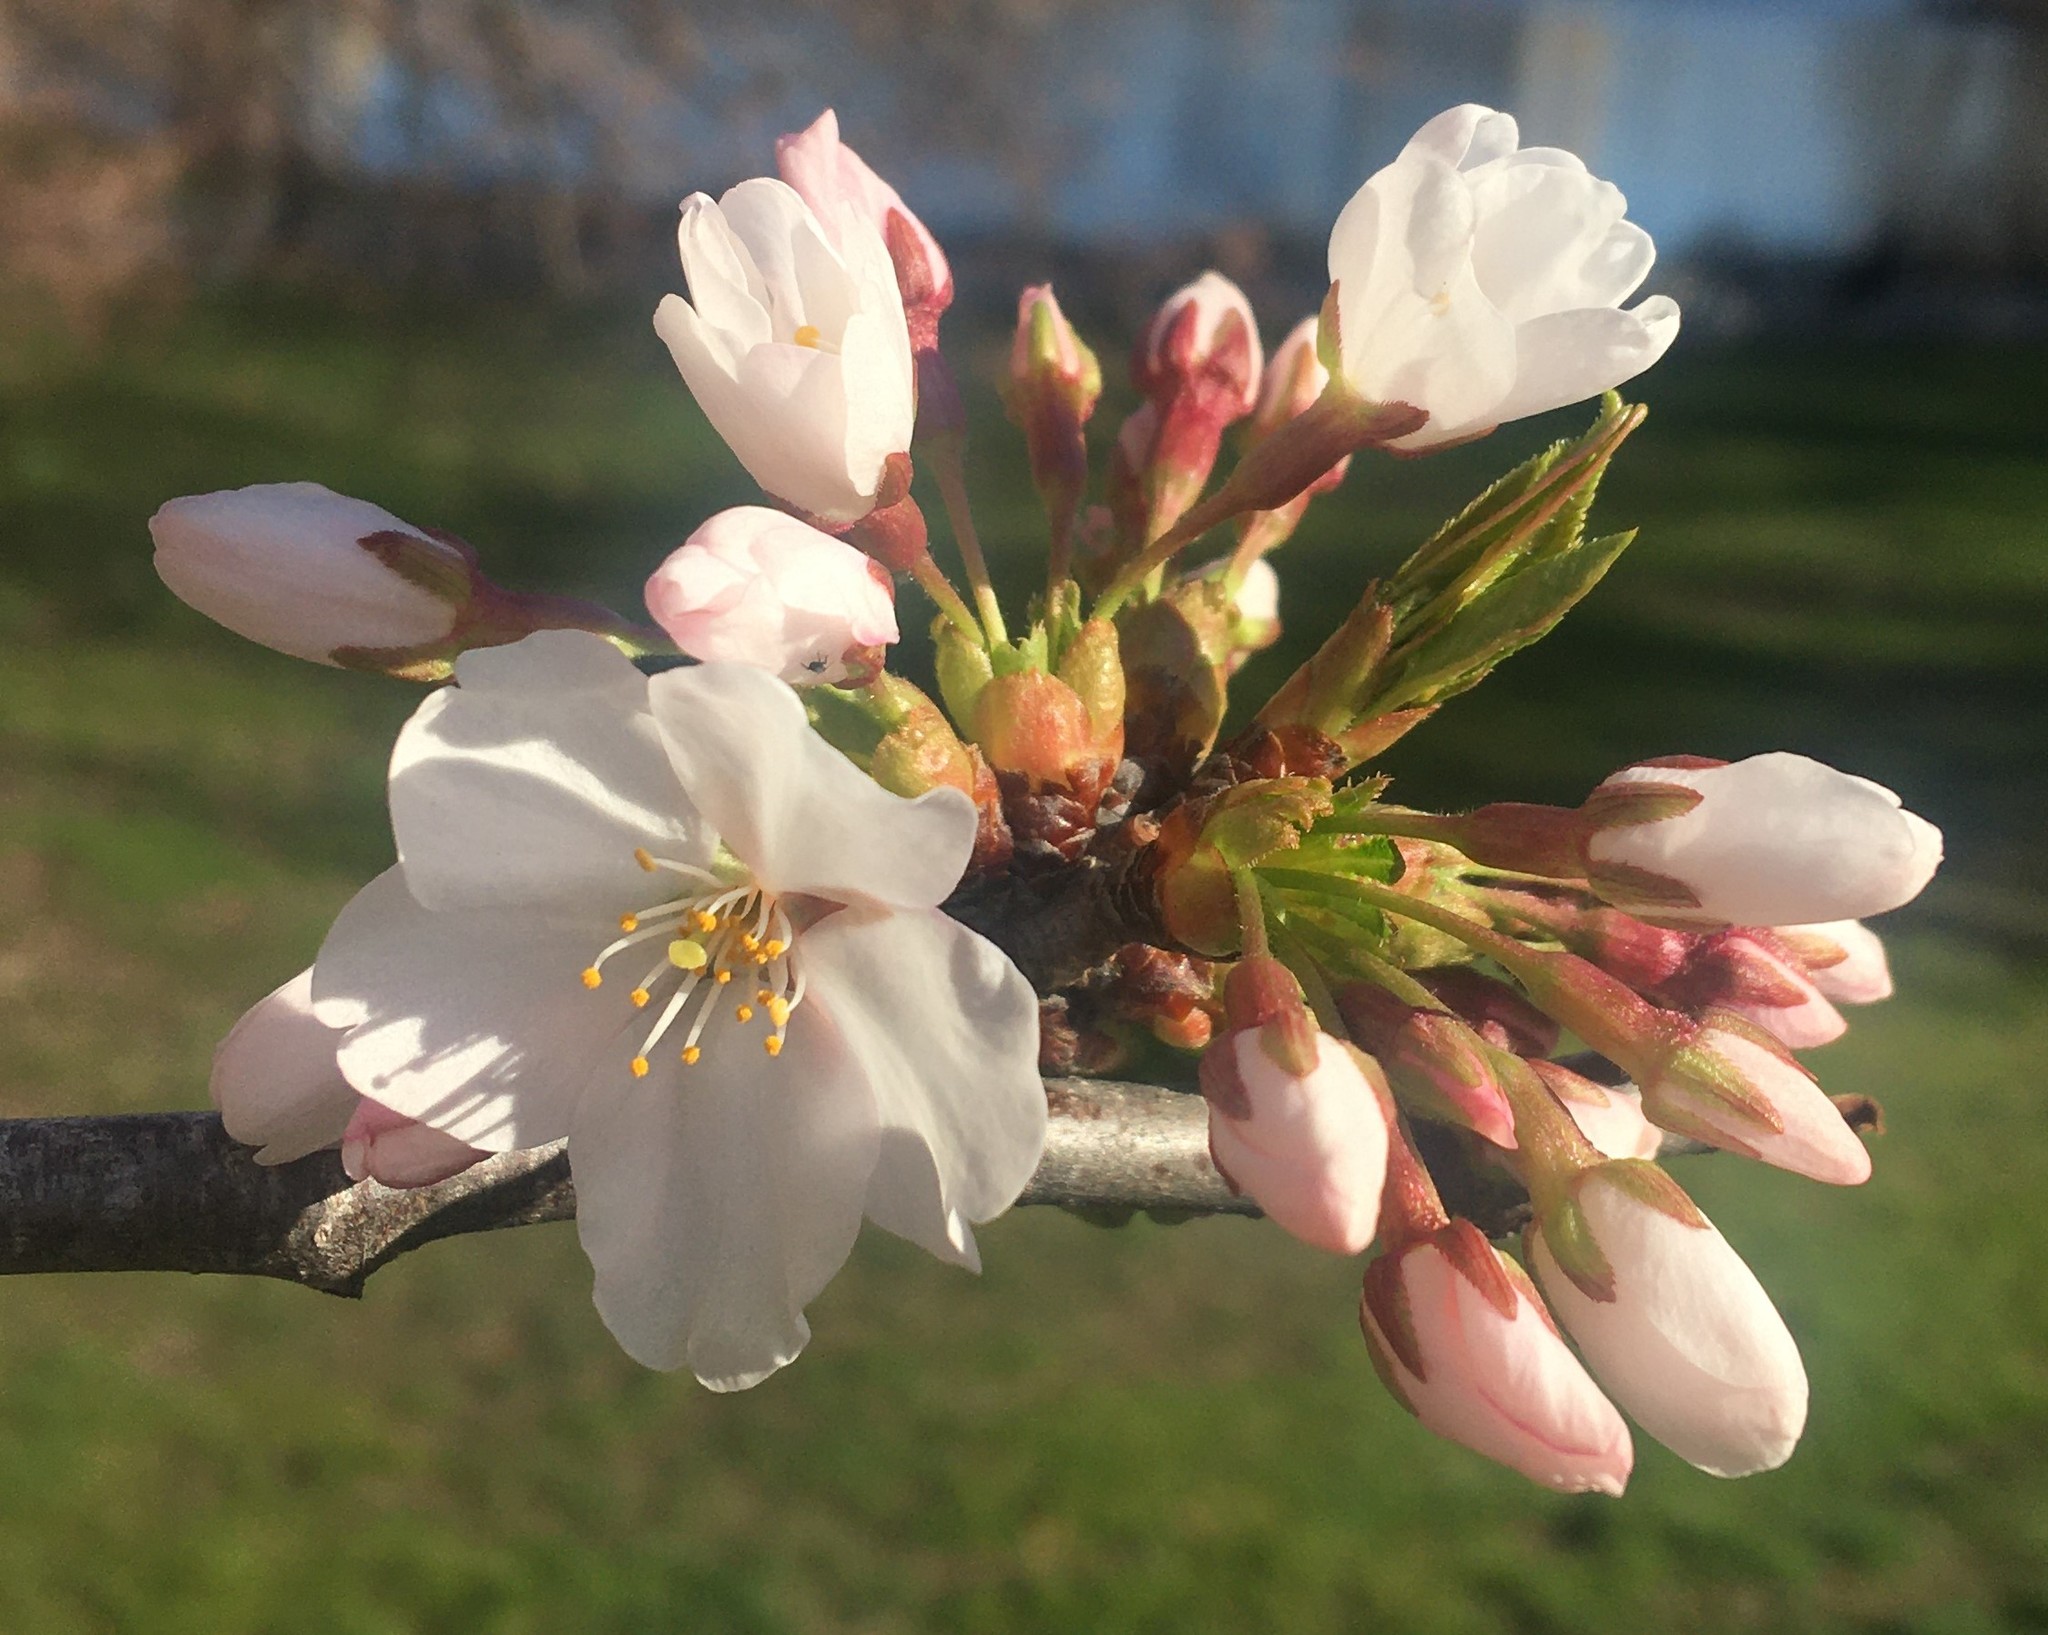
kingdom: Plantae
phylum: Tracheophyta
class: Magnoliopsida
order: Rosales
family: Rosaceae
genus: Prunus
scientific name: Prunus yedoensis
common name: Yoshino cherry
